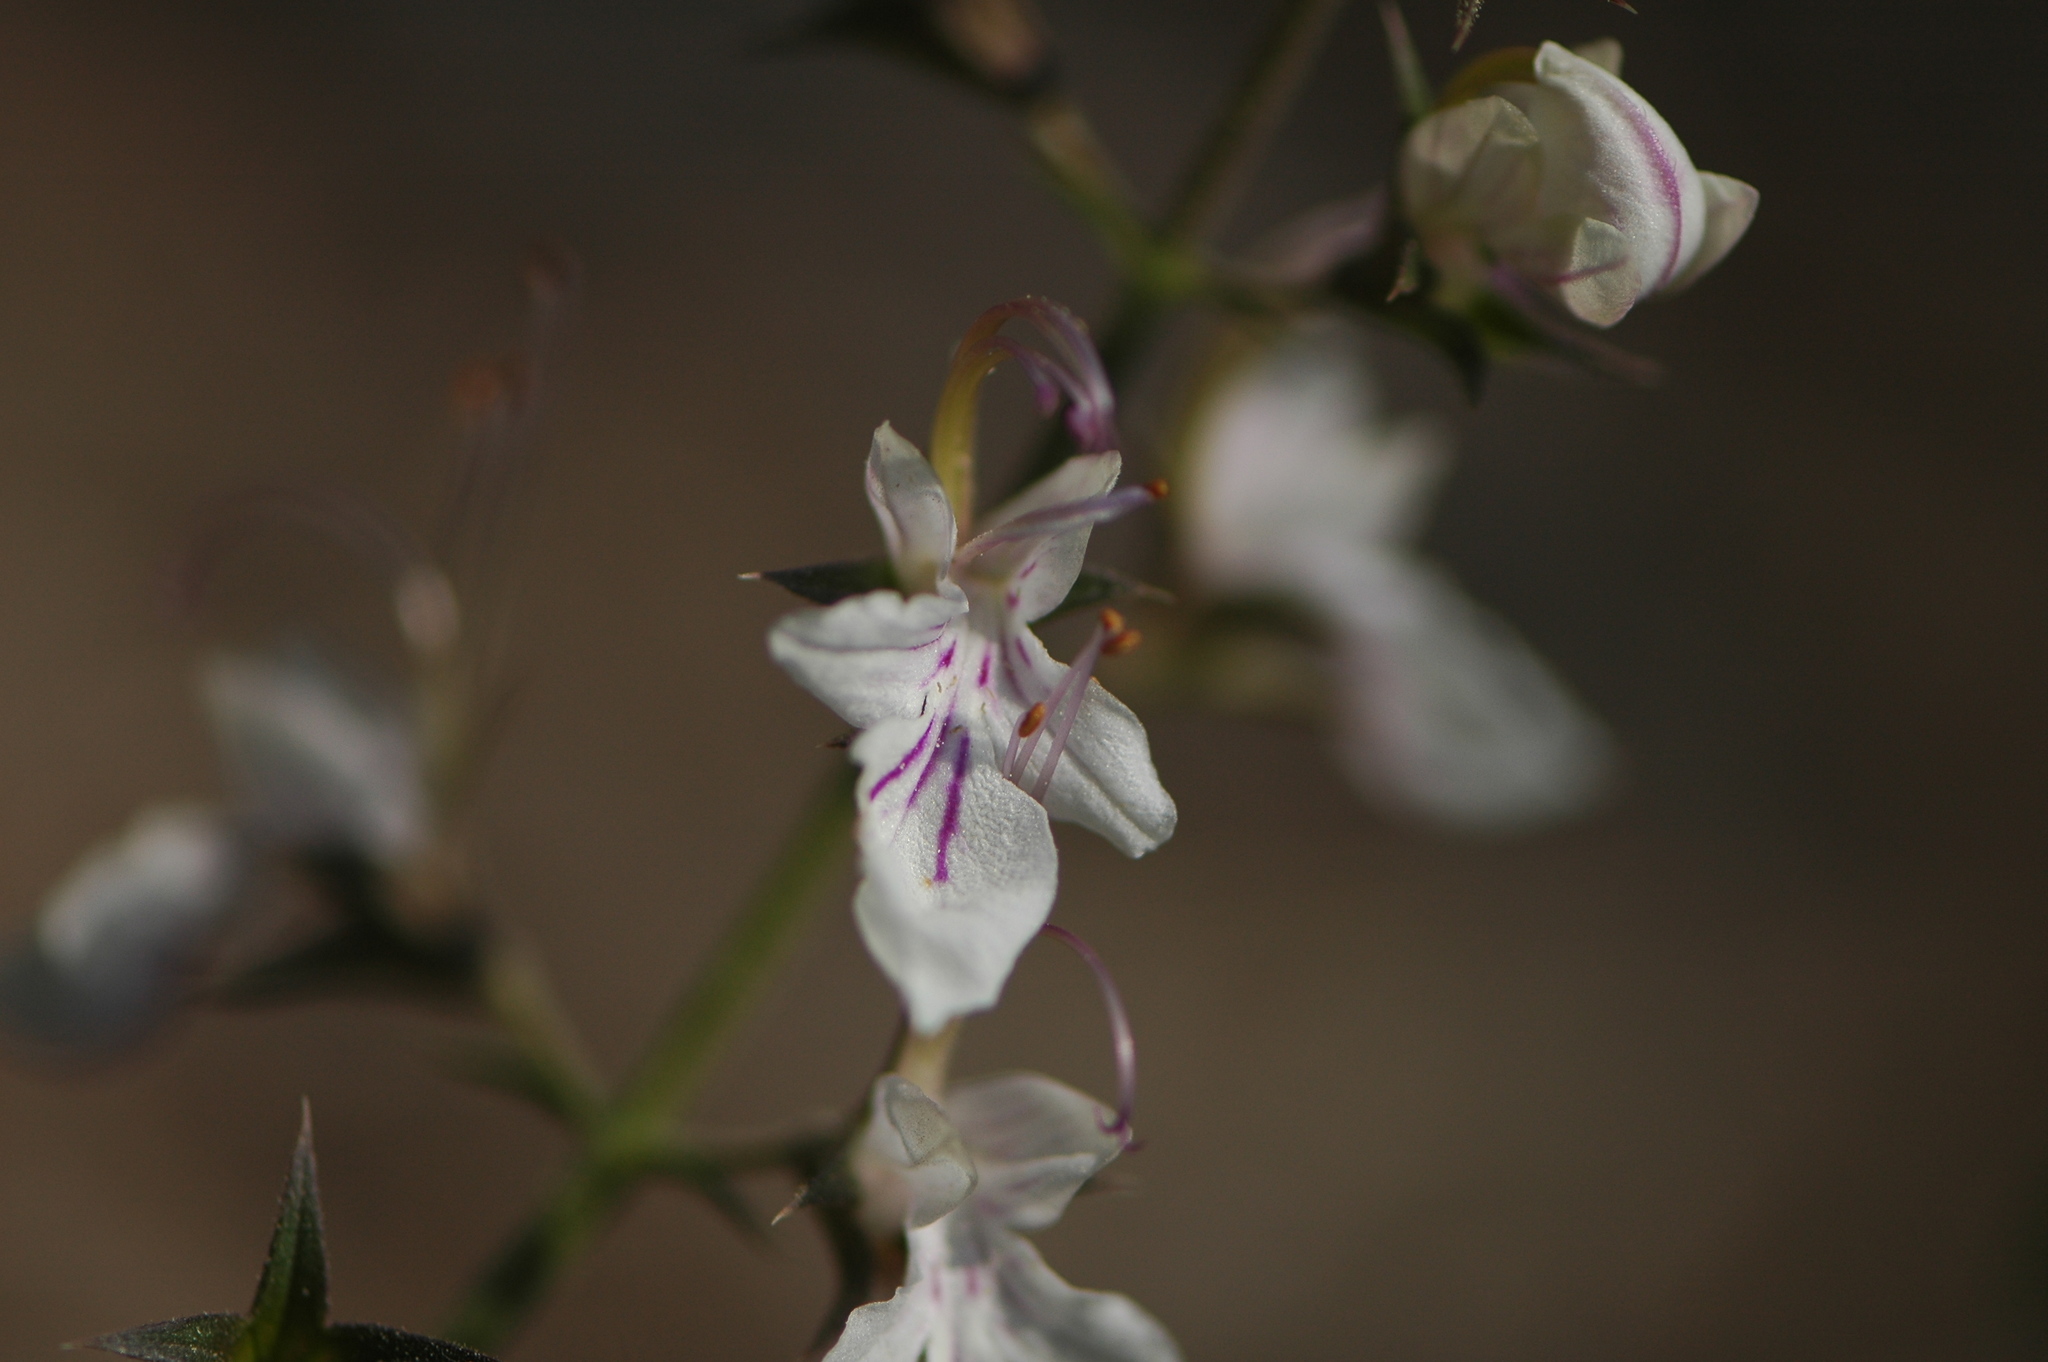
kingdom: Plantae
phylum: Tracheophyta
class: Magnoliopsida
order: Lamiales
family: Lamiaceae
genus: Teucrium
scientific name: Teucrium pseudochamaepitys
